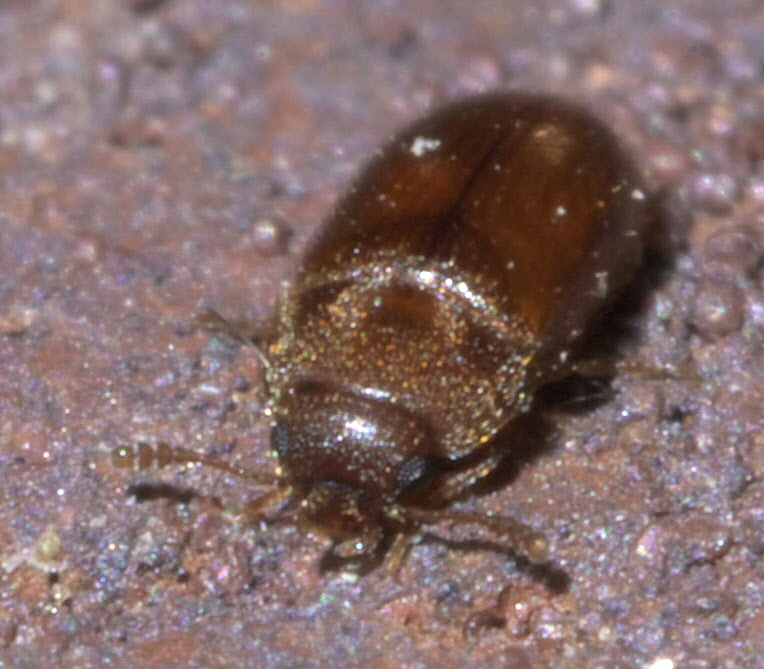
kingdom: Animalia
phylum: Arthropoda
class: Insecta
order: Coleoptera
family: Mycetophagidae
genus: Typhaea
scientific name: Typhaea stercorea
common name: Hairy fungus beetle
